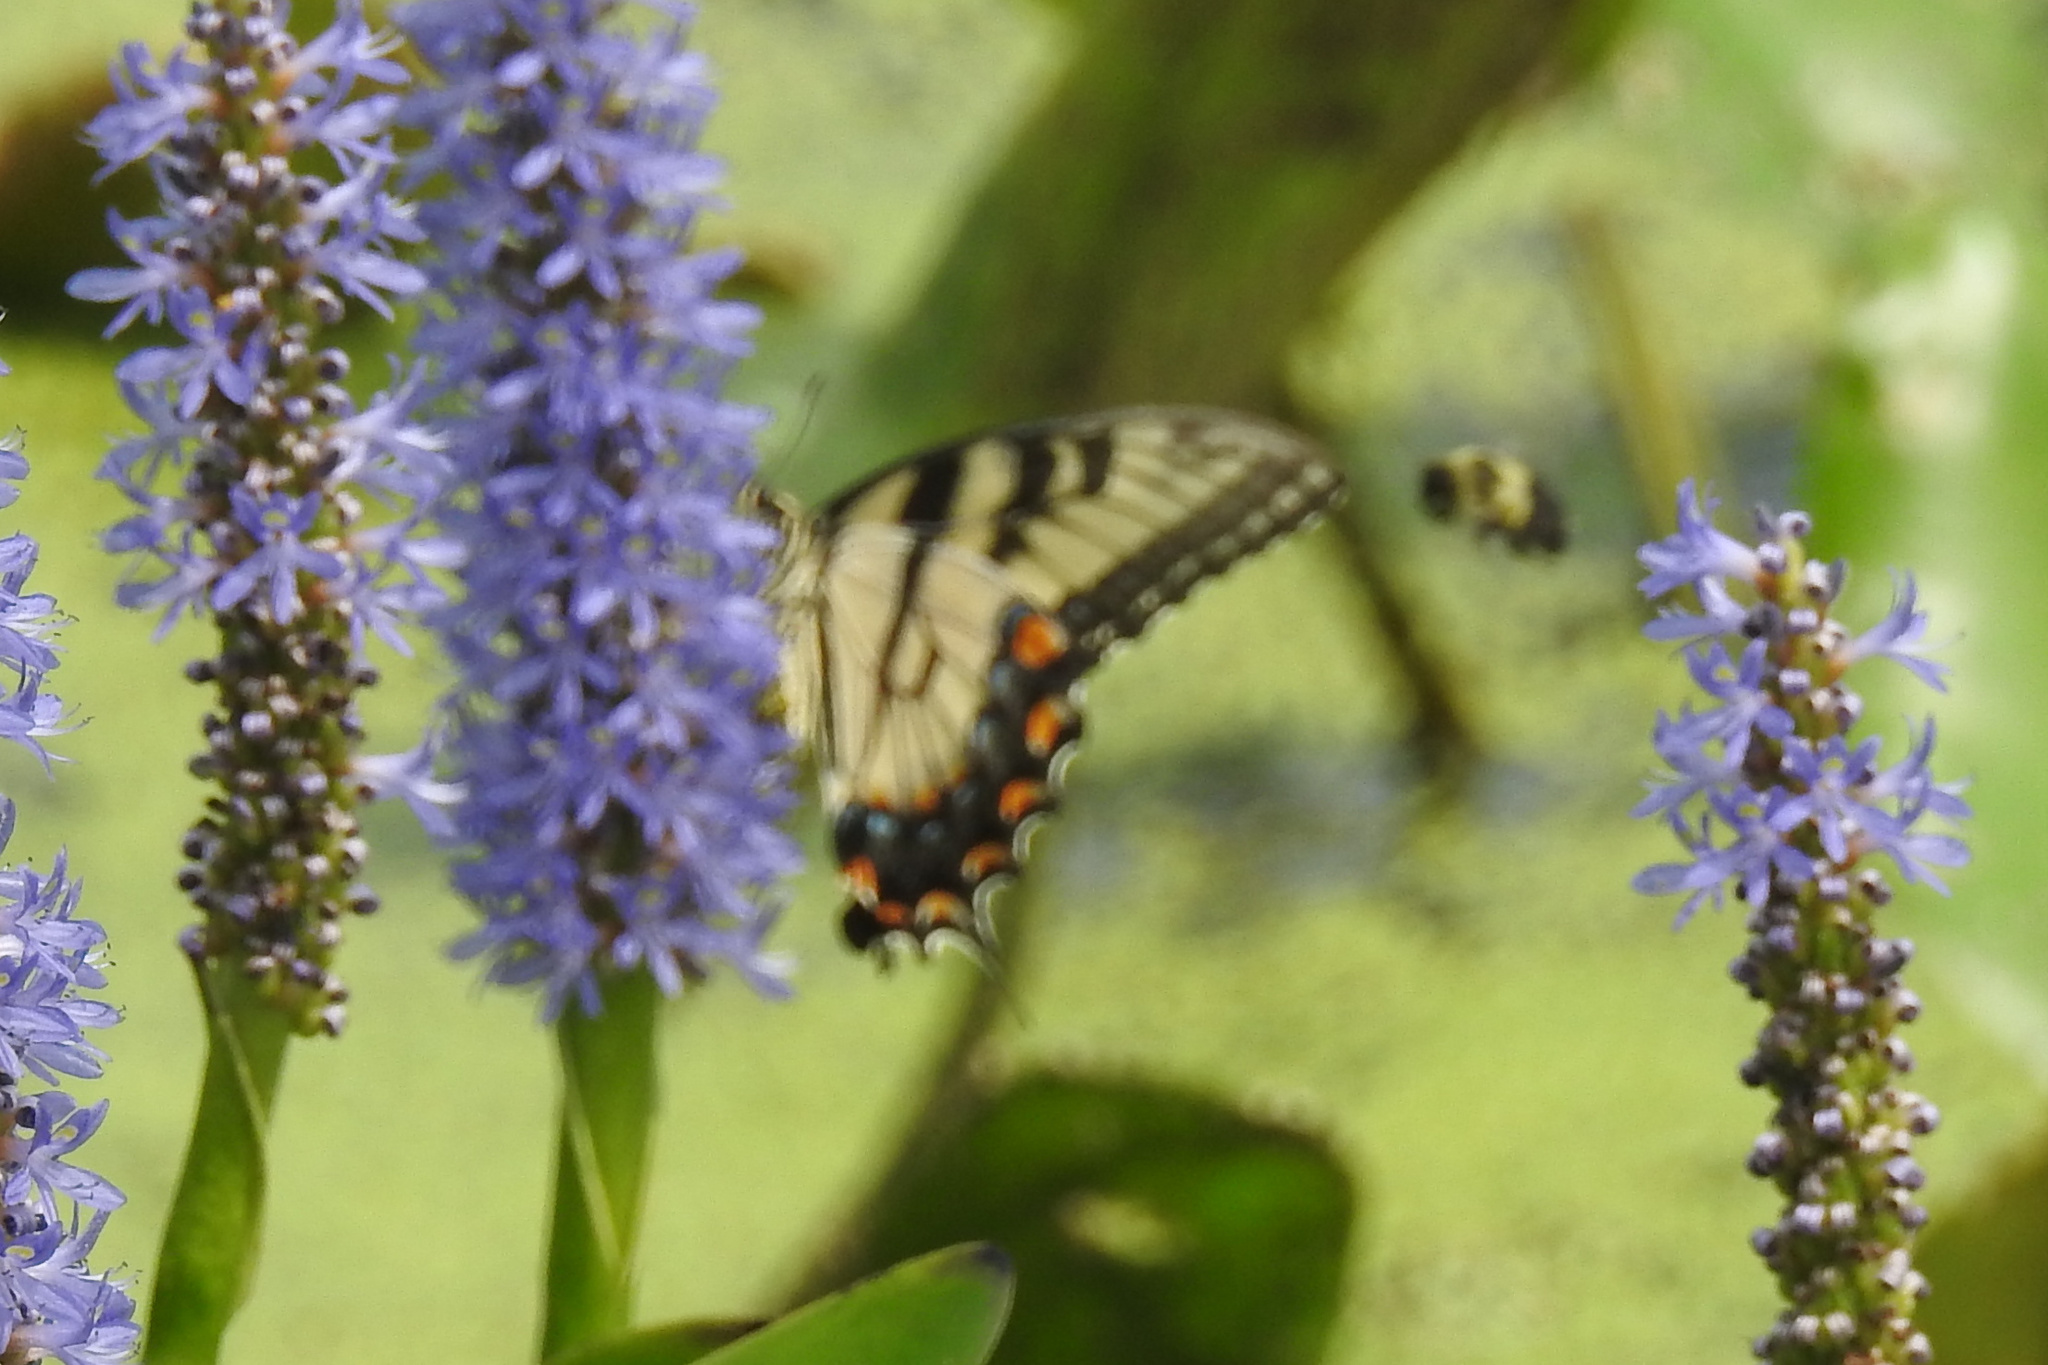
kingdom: Animalia
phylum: Arthropoda
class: Insecta
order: Lepidoptera
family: Papilionidae
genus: Papilio
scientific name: Papilio glaucus
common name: Tiger swallowtail
